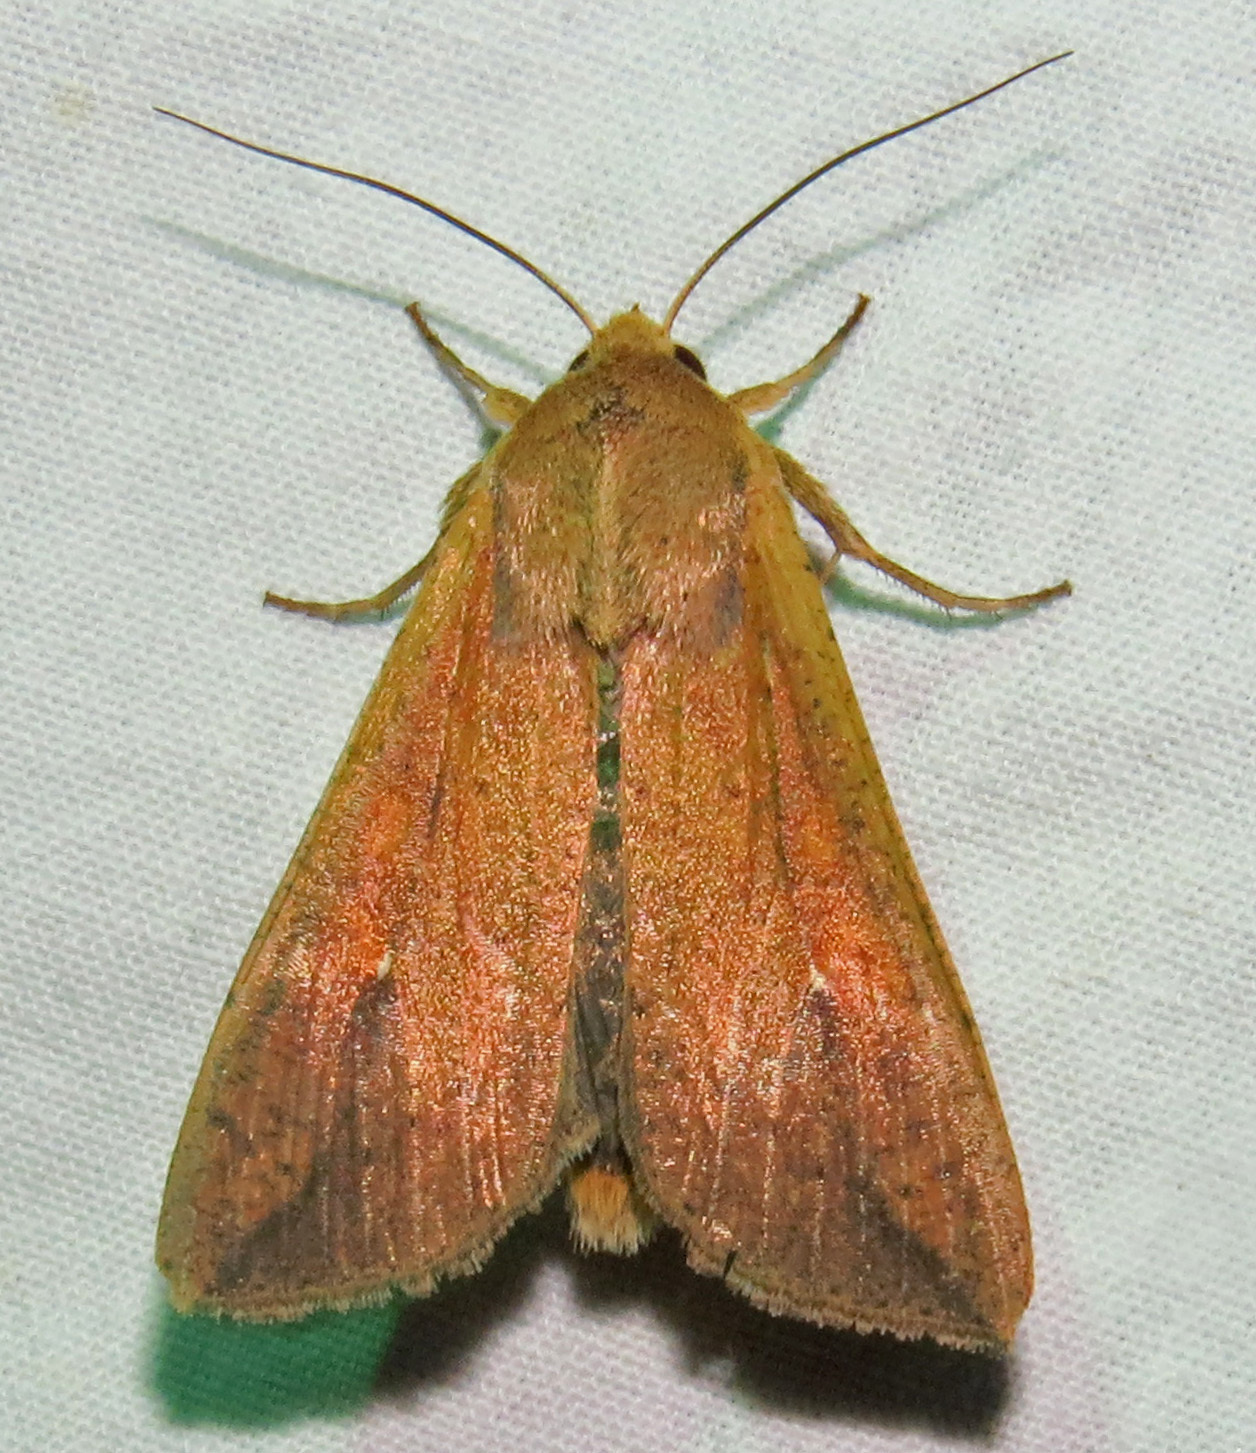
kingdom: Animalia
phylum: Arthropoda
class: Insecta
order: Lepidoptera
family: Noctuidae
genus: Mythimna
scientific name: Mythimna unipuncta
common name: White-speck
